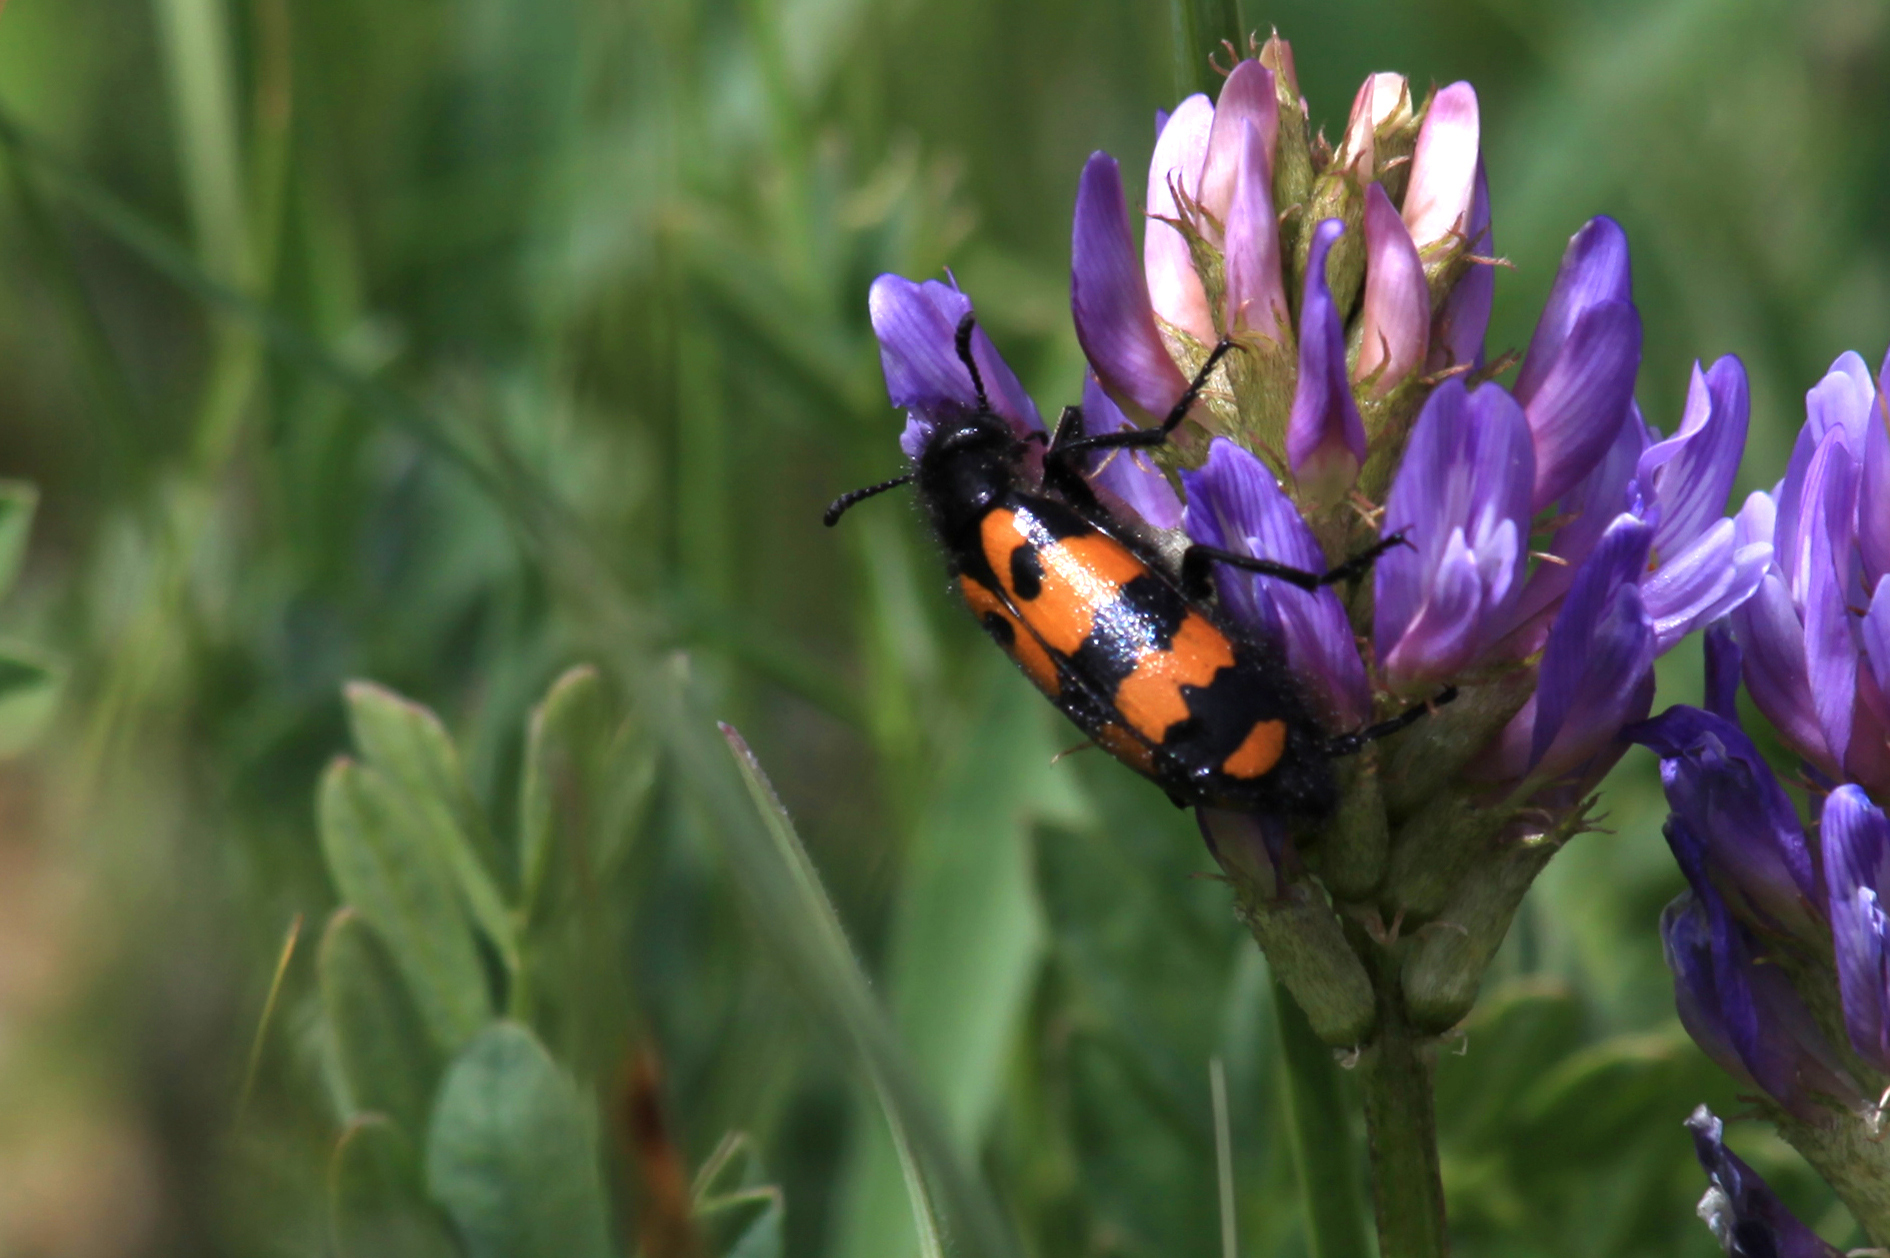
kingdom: Animalia
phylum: Arthropoda
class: Insecta
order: Coleoptera
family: Meloidae
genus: Mylabris
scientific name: Mylabris variabilis
